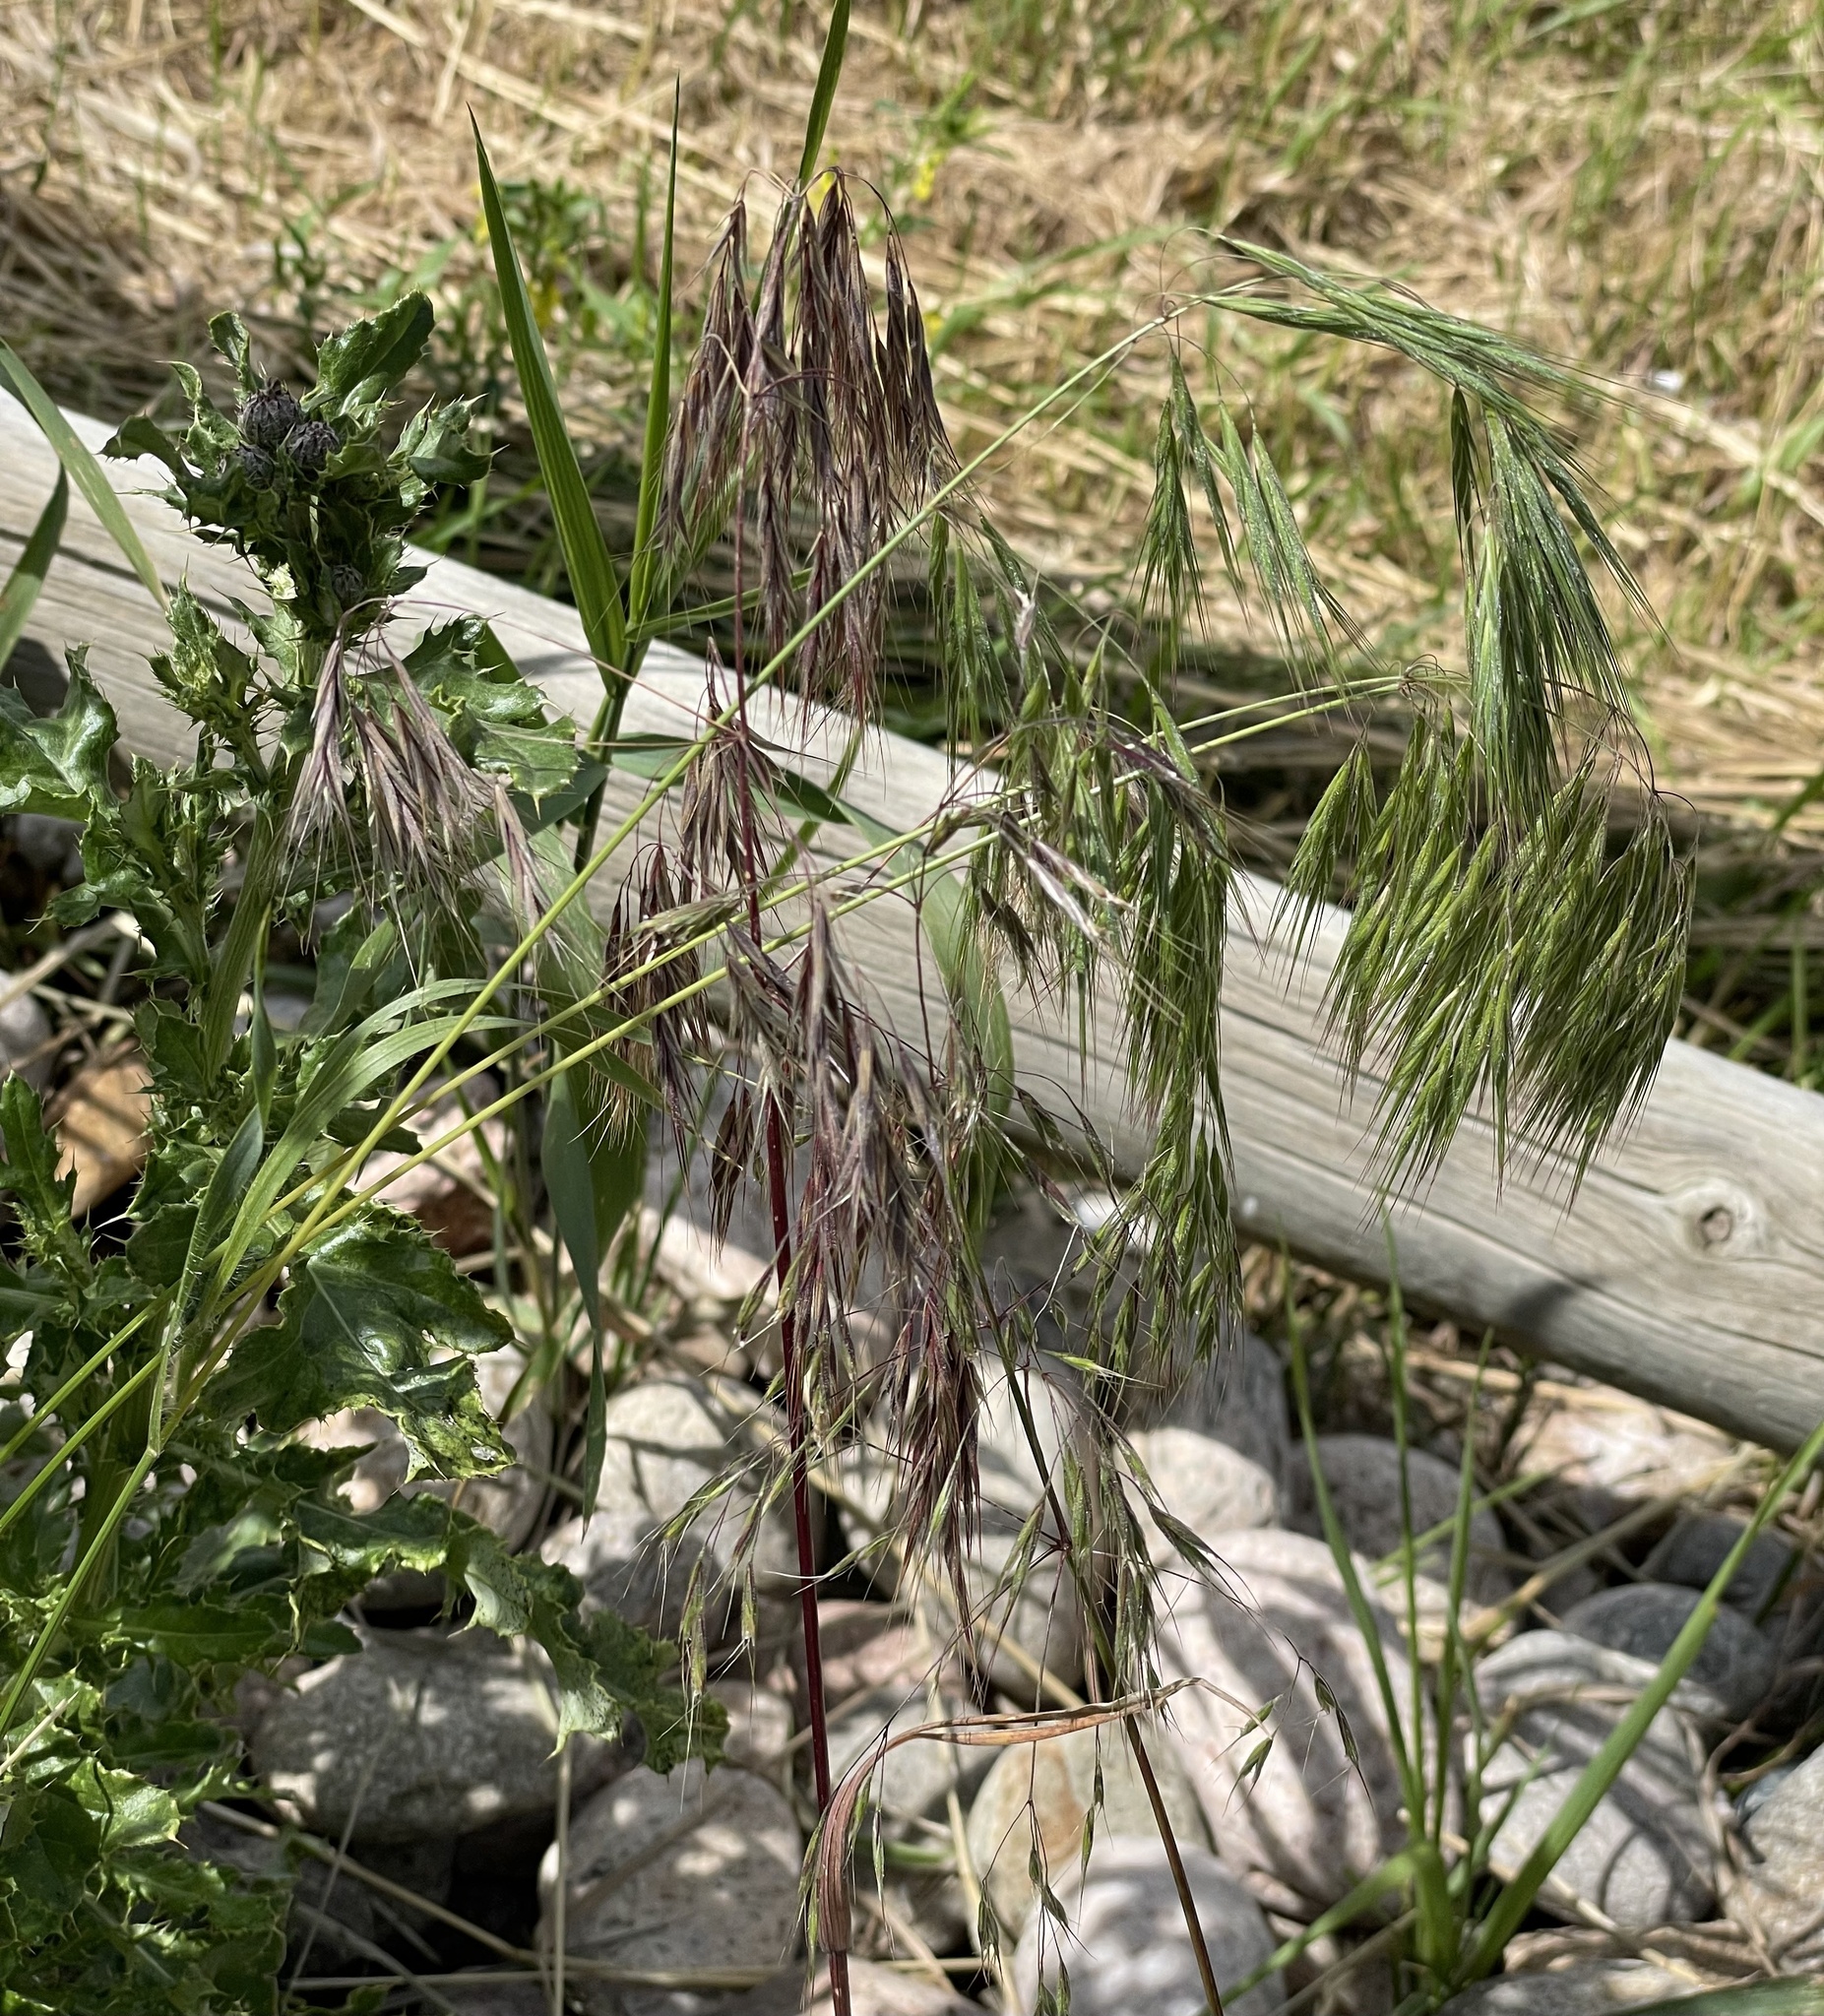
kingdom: Plantae
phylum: Tracheophyta
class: Liliopsida
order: Poales
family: Poaceae
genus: Bromus
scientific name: Bromus tectorum
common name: Cheatgrass
